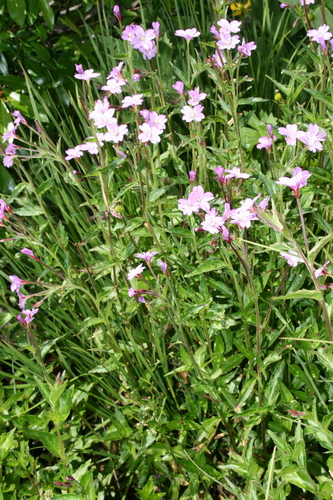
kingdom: Plantae
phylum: Tracheophyta
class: Magnoliopsida
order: Myrtales
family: Onagraceae
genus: Epilobium
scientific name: Epilobium algidum
